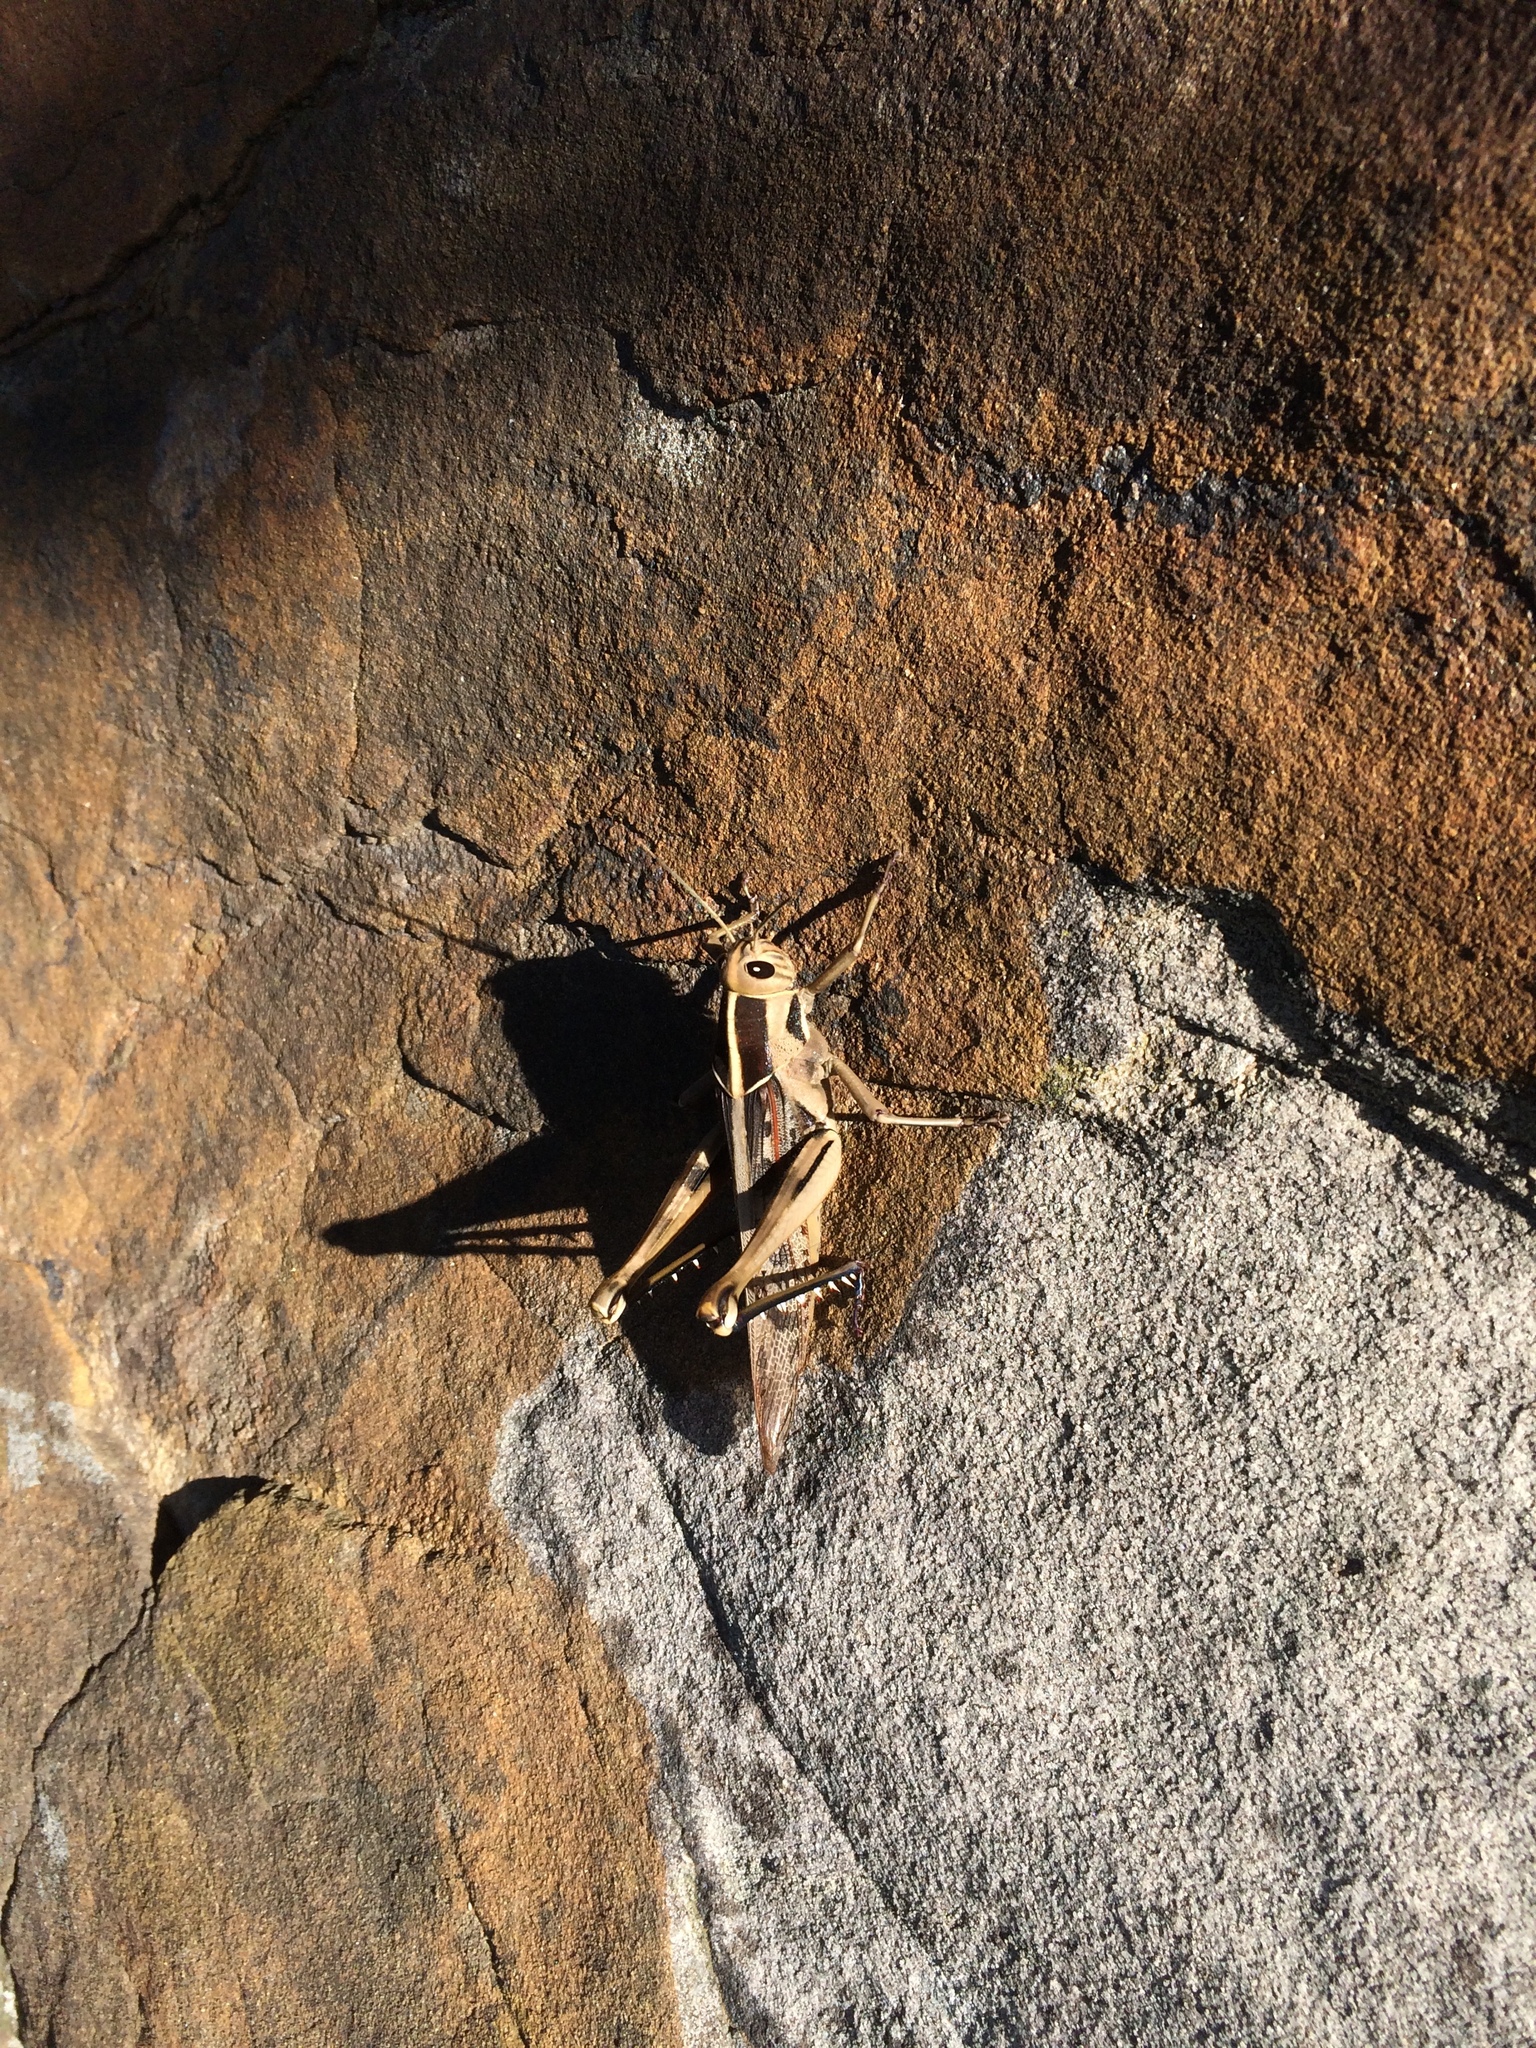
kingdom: Animalia
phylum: Arthropoda
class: Insecta
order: Orthoptera
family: Acrididae
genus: Acanthacris
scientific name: Acanthacris ruficornis
